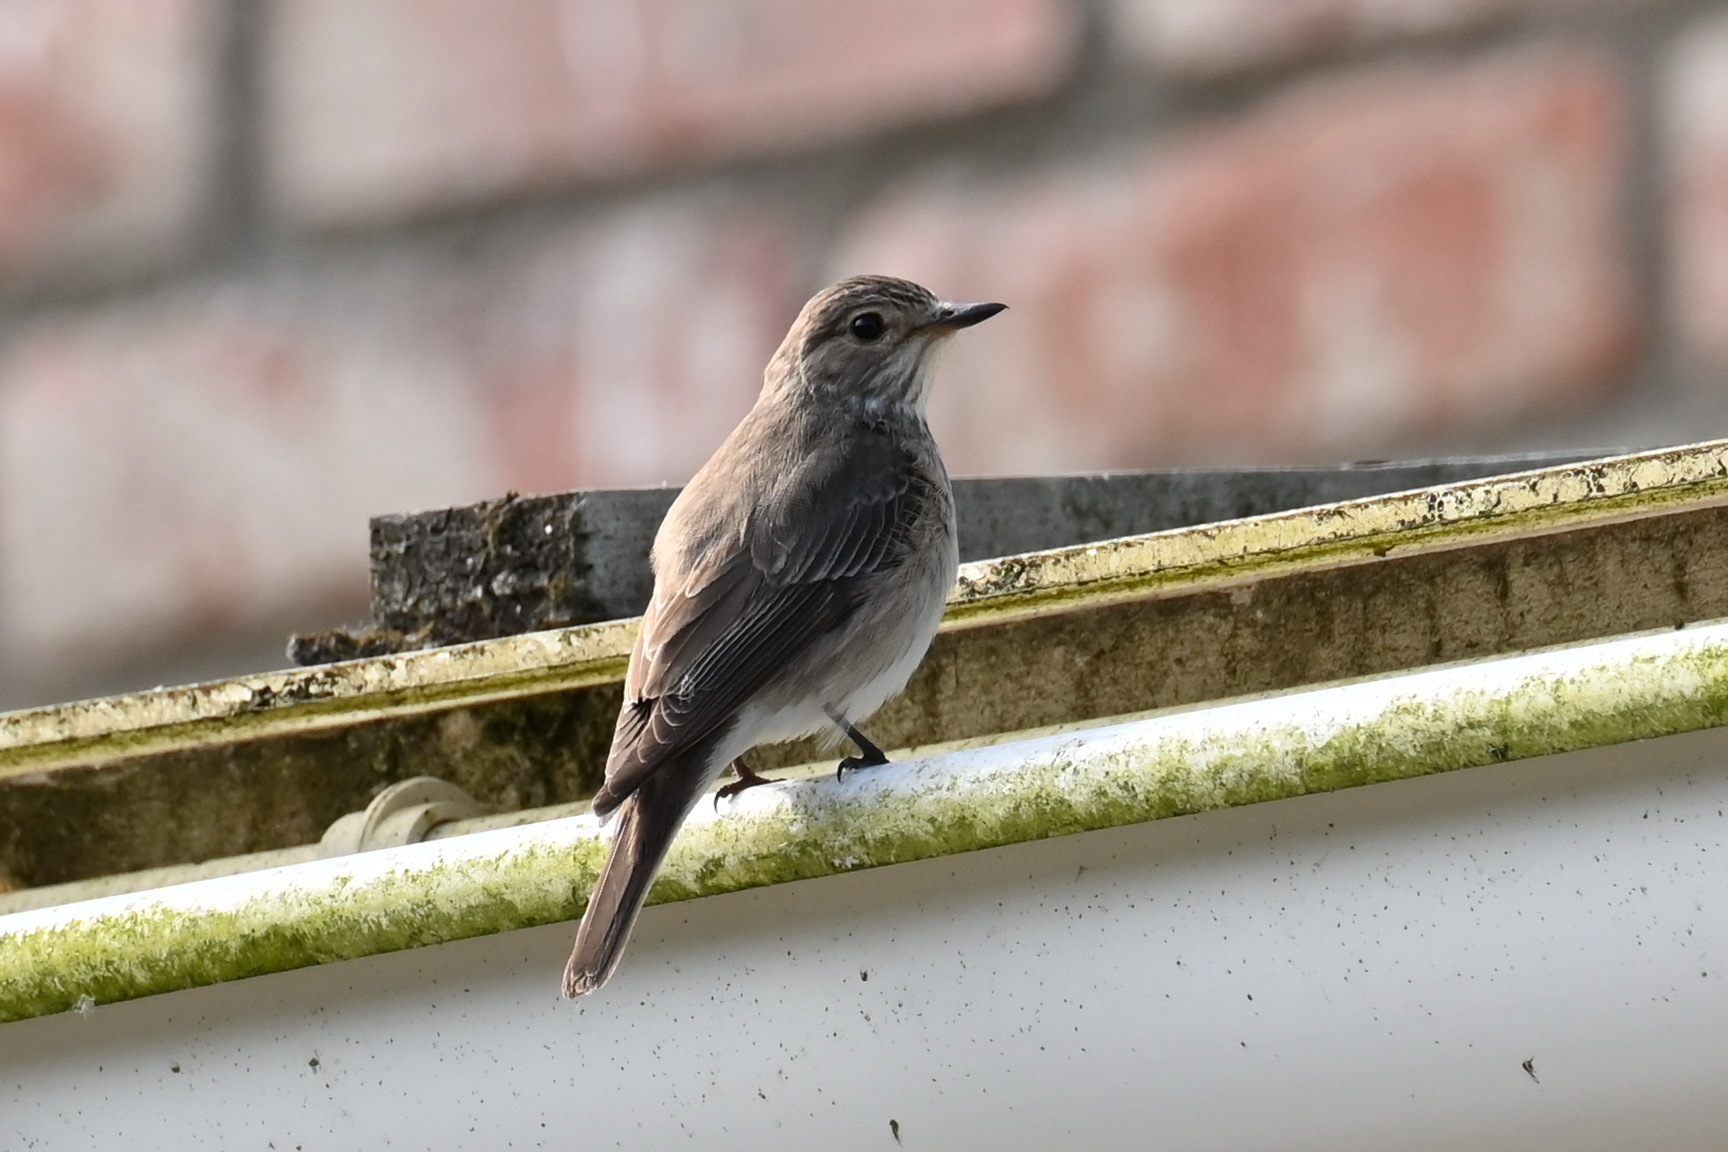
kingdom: Animalia
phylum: Chordata
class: Aves
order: Passeriformes
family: Muscicapidae
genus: Muscicapa
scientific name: Muscicapa striata
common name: Spotted flycatcher
